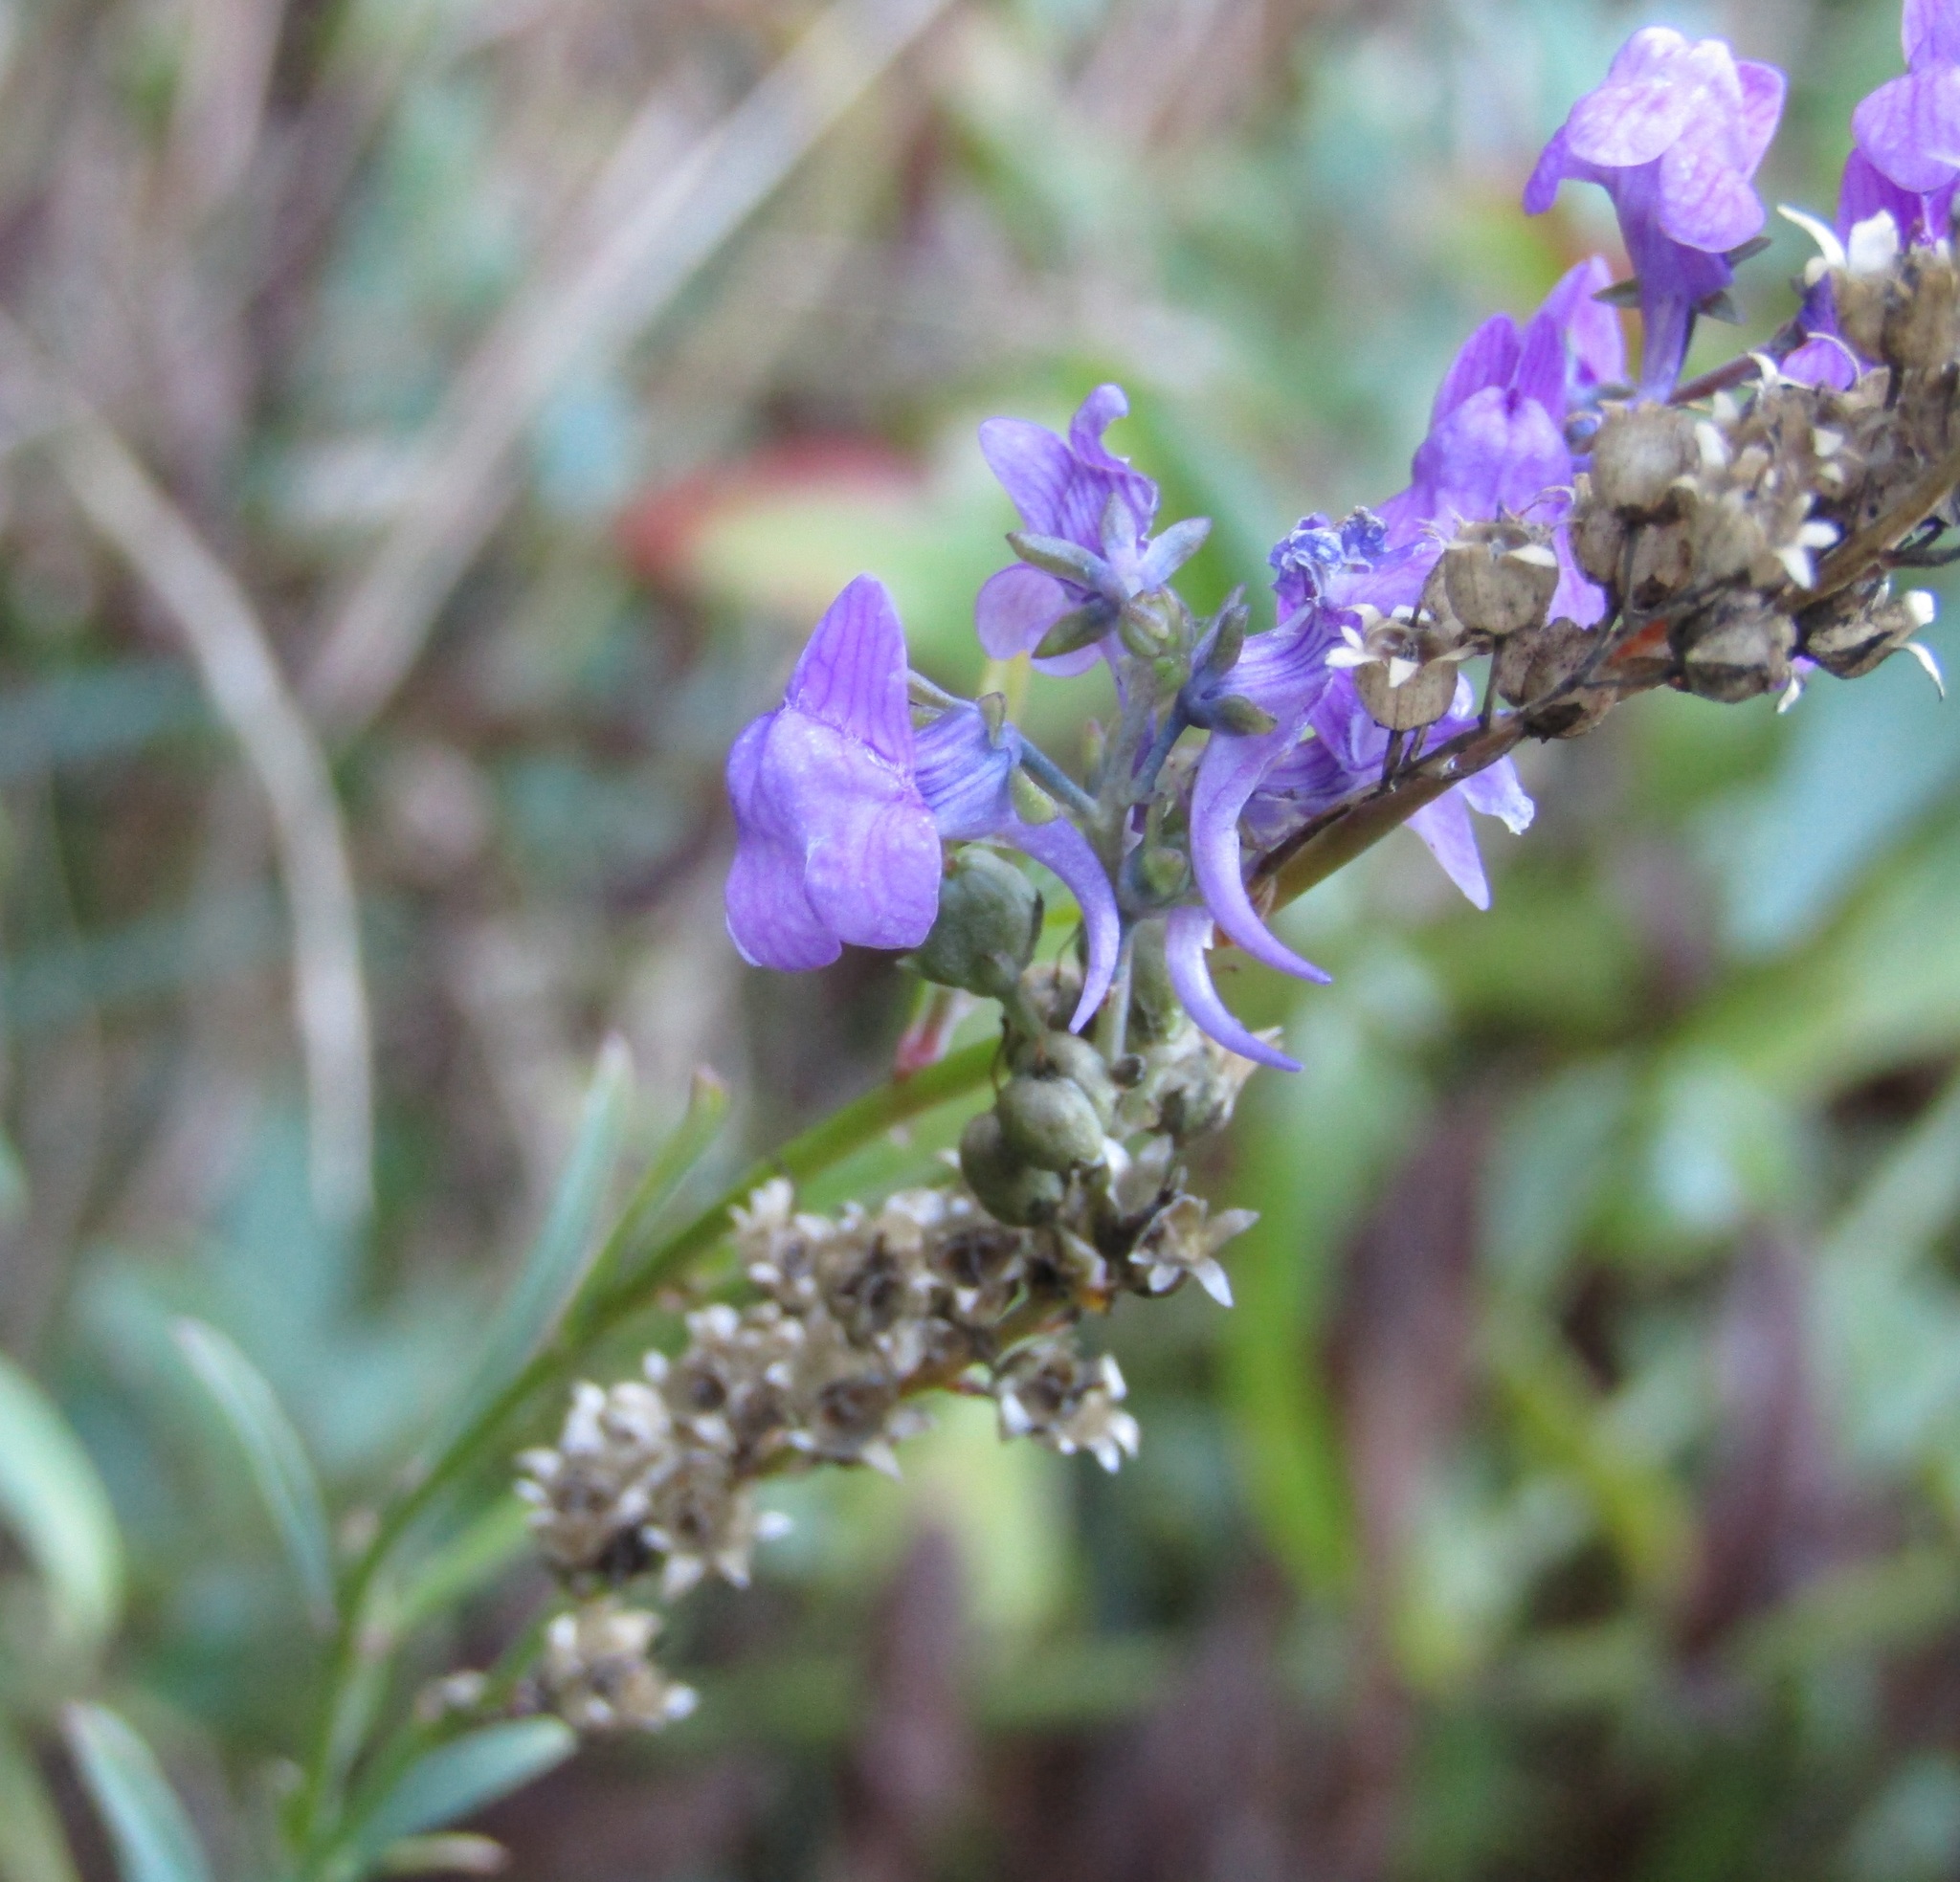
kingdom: Plantae
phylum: Tracheophyta
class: Magnoliopsida
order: Lamiales
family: Plantaginaceae
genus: Linaria
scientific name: Linaria purpurea
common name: Purple toadflax
